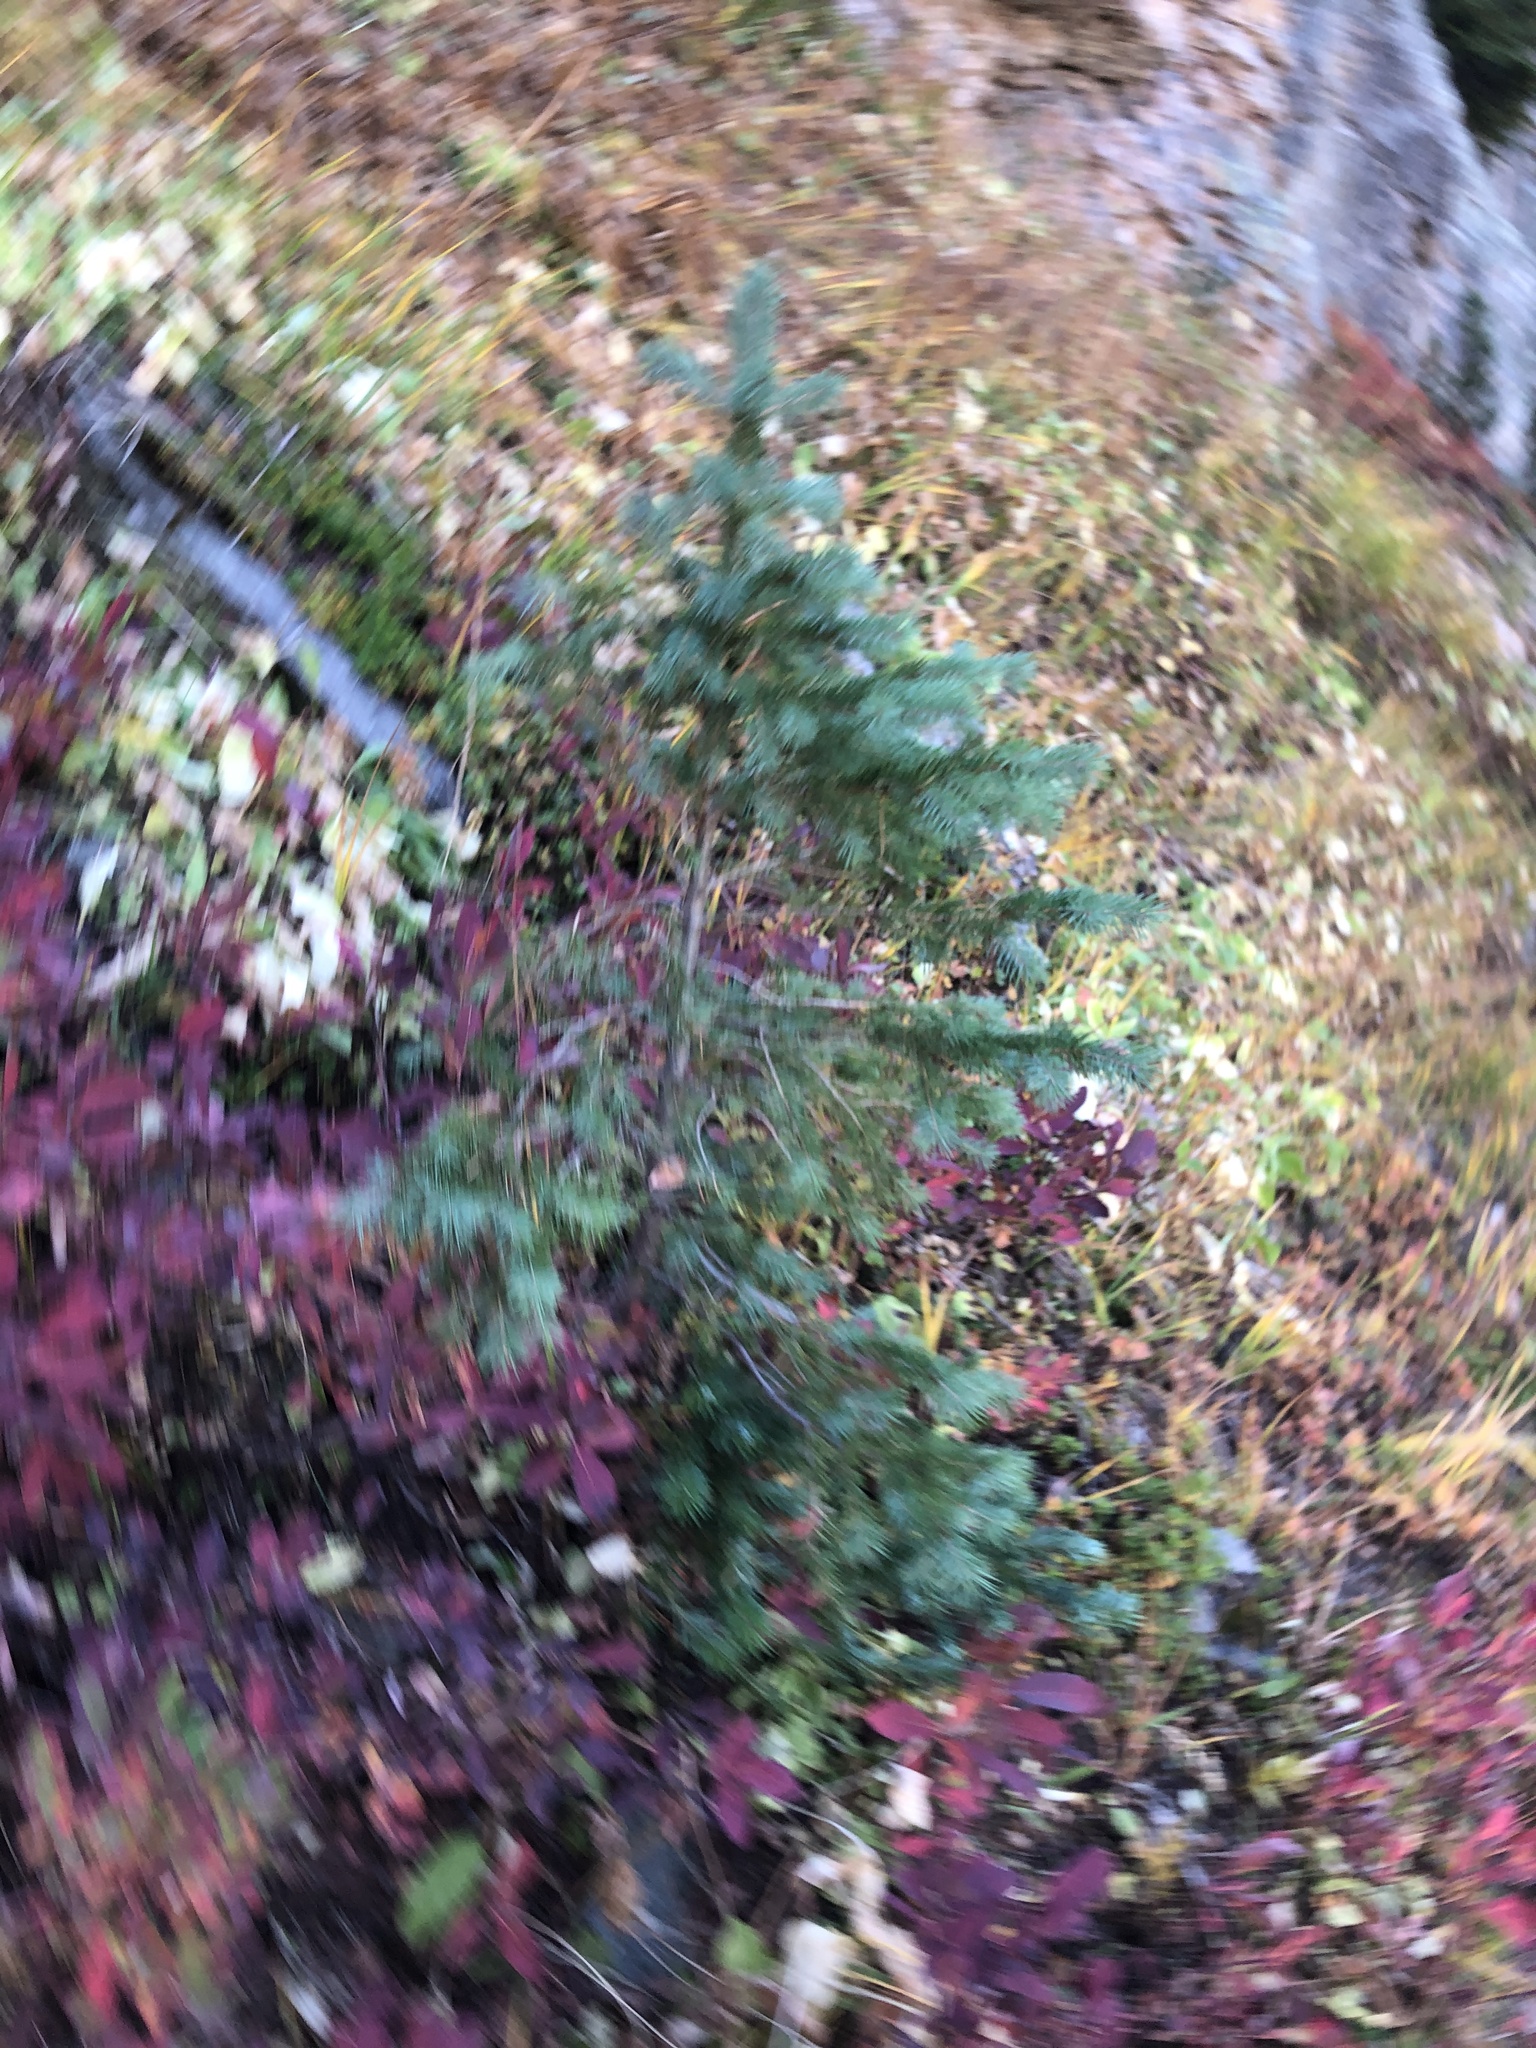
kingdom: Plantae
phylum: Tracheophyta
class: Pinopsida
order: Pinales
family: Pinaceae
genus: Picea
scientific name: Picea engelmannii
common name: Engelmann spruce
